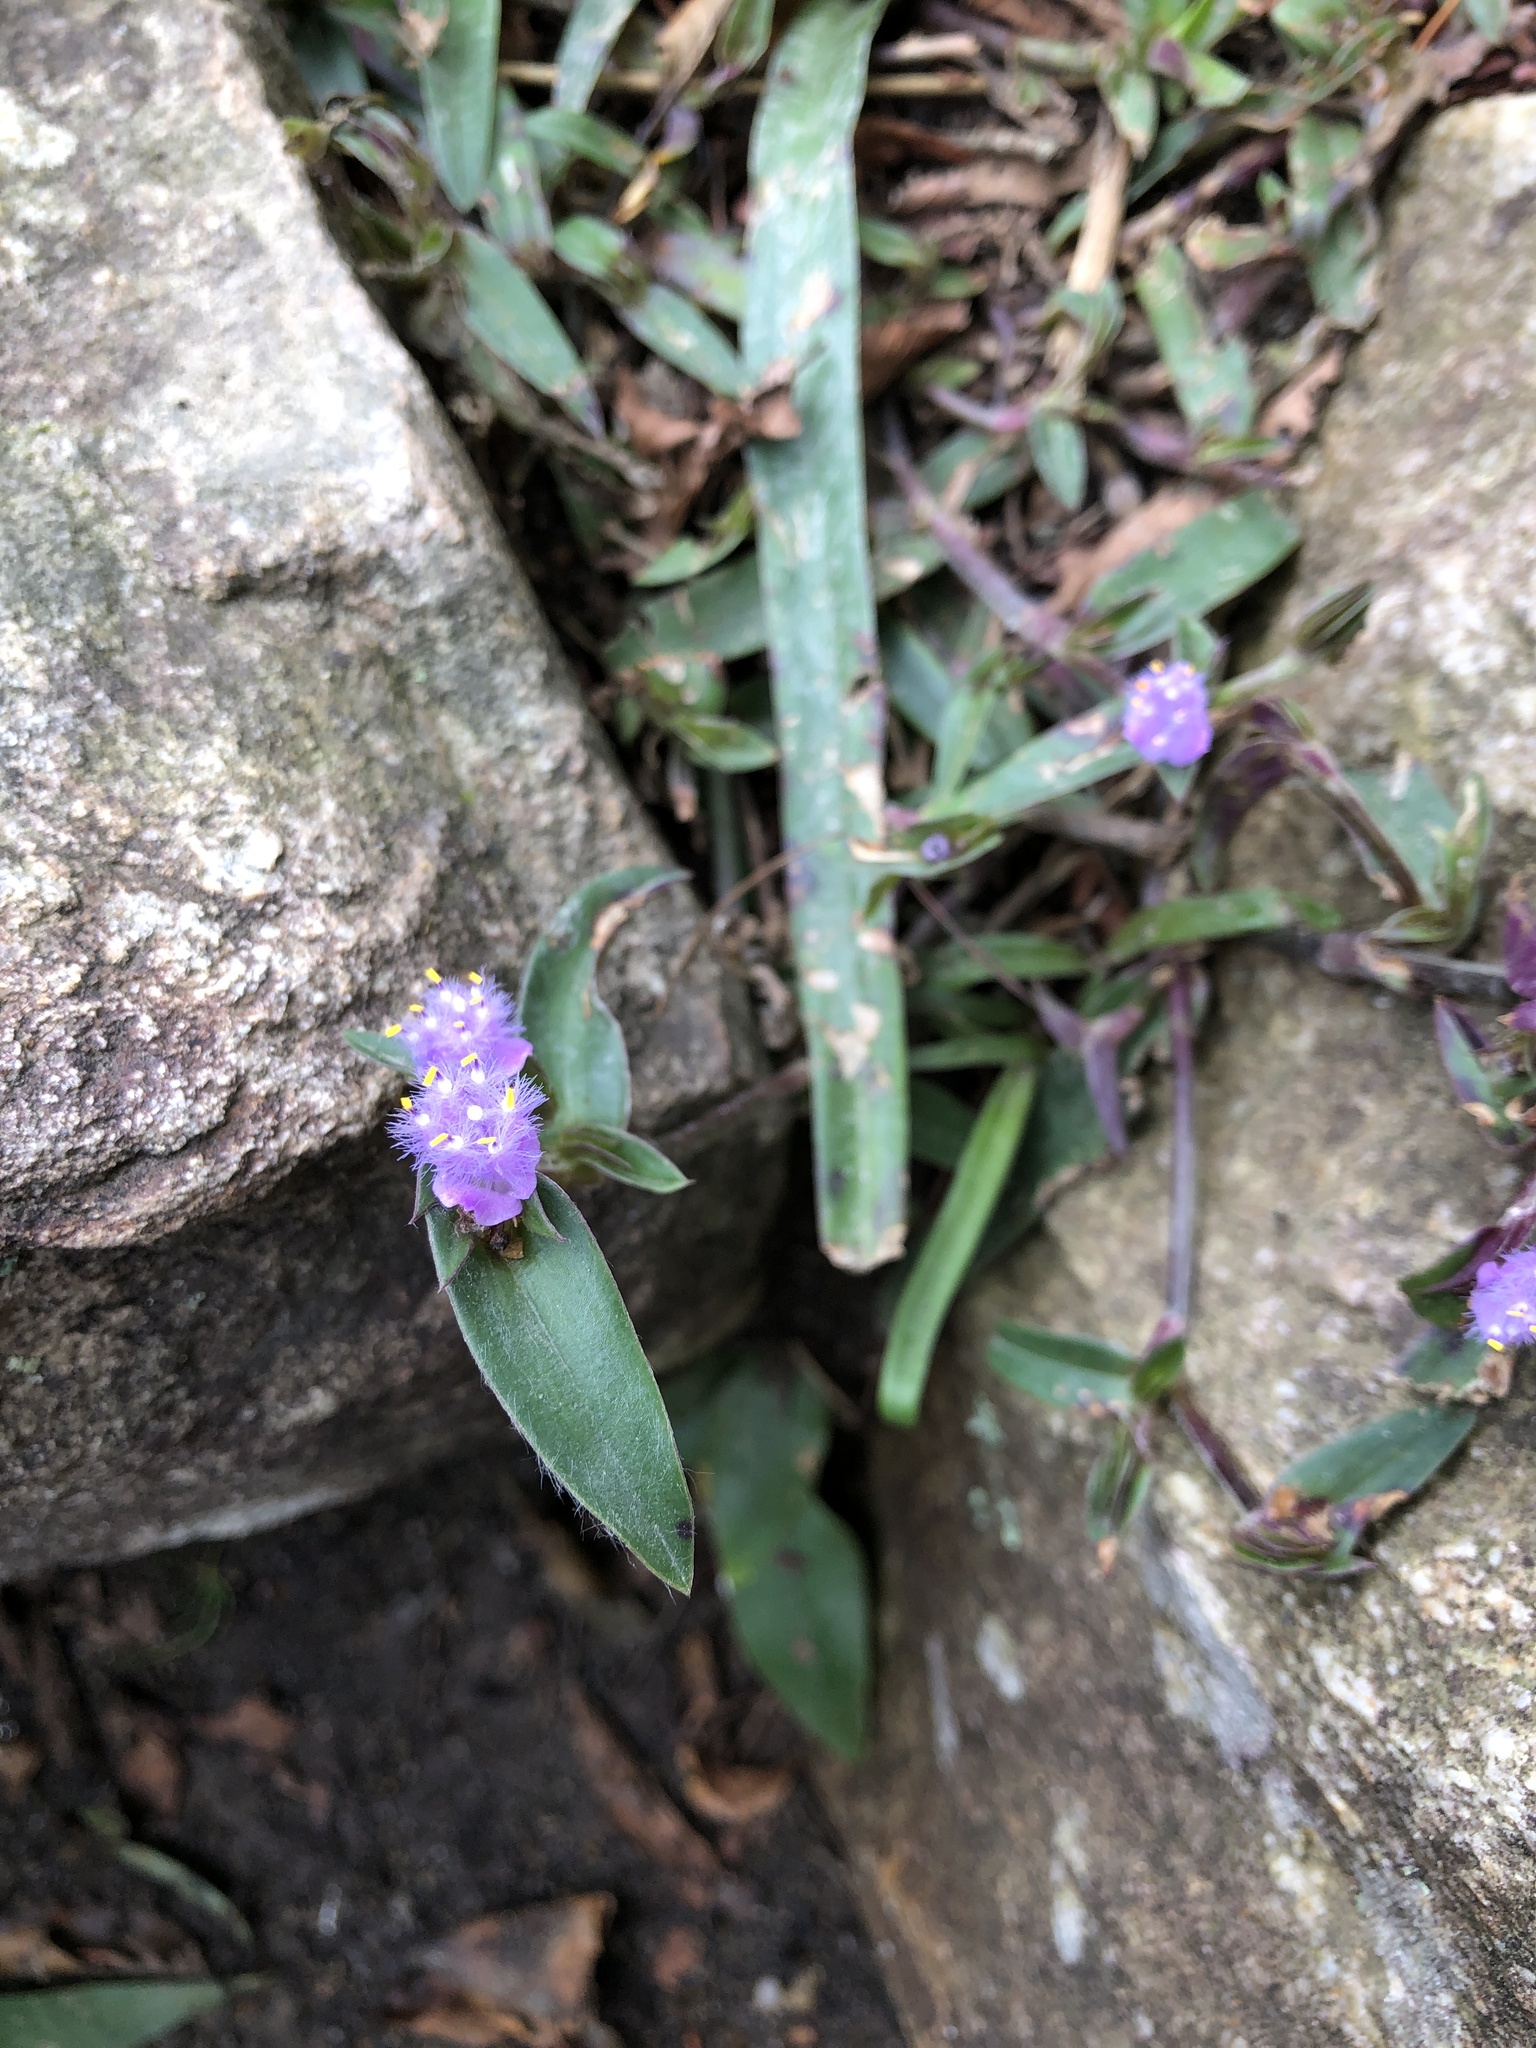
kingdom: Plantae
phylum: Tracheophyta
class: Liliopsida
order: Commelinales
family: Commelinaceae
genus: Cyanotis
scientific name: Cyanotis arachnoidea
